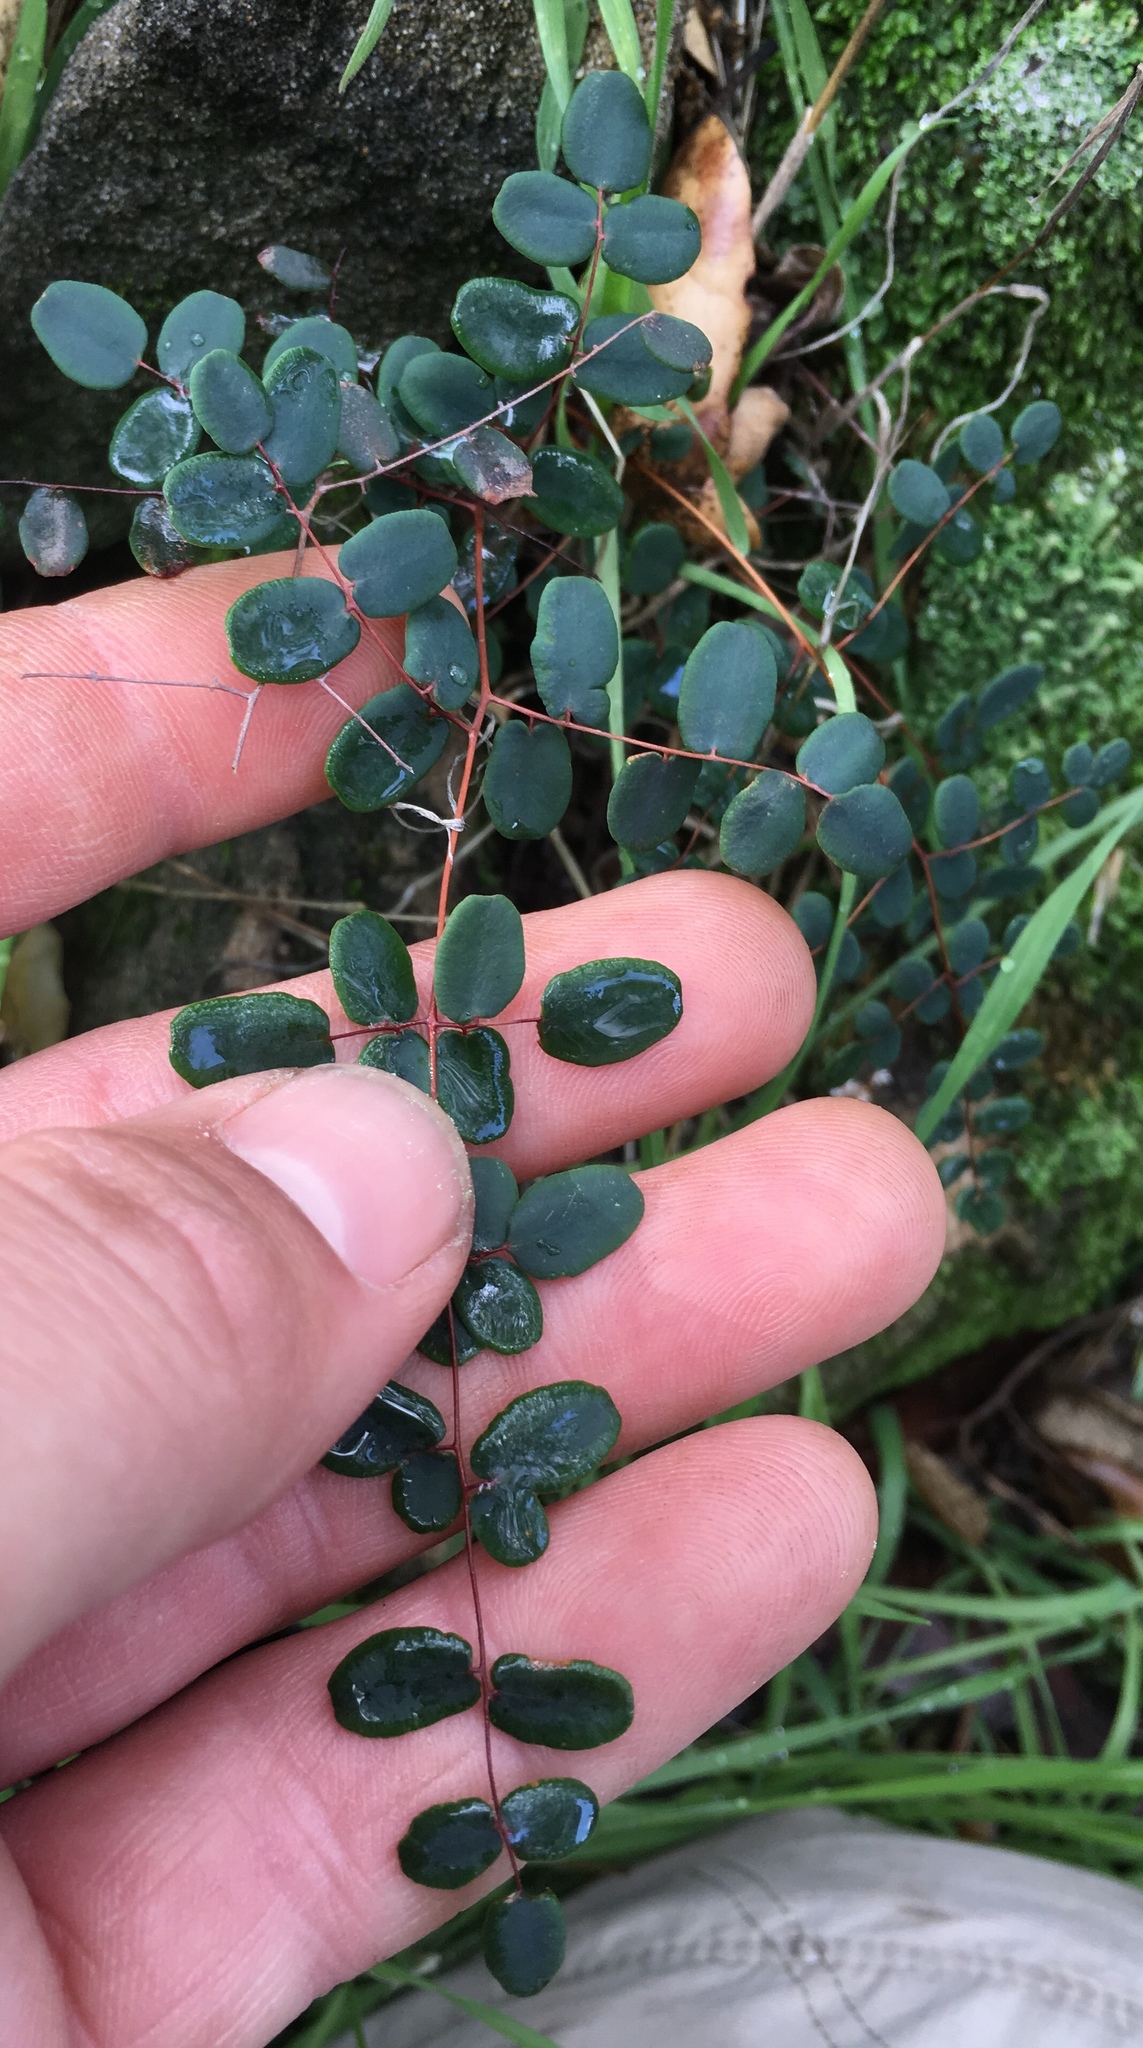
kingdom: Plantae
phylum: Tracheophyta
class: Polypodiopsida
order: Polypodiales
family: Pteridaceae
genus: Pellaea
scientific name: Pellaea andromedifolia
